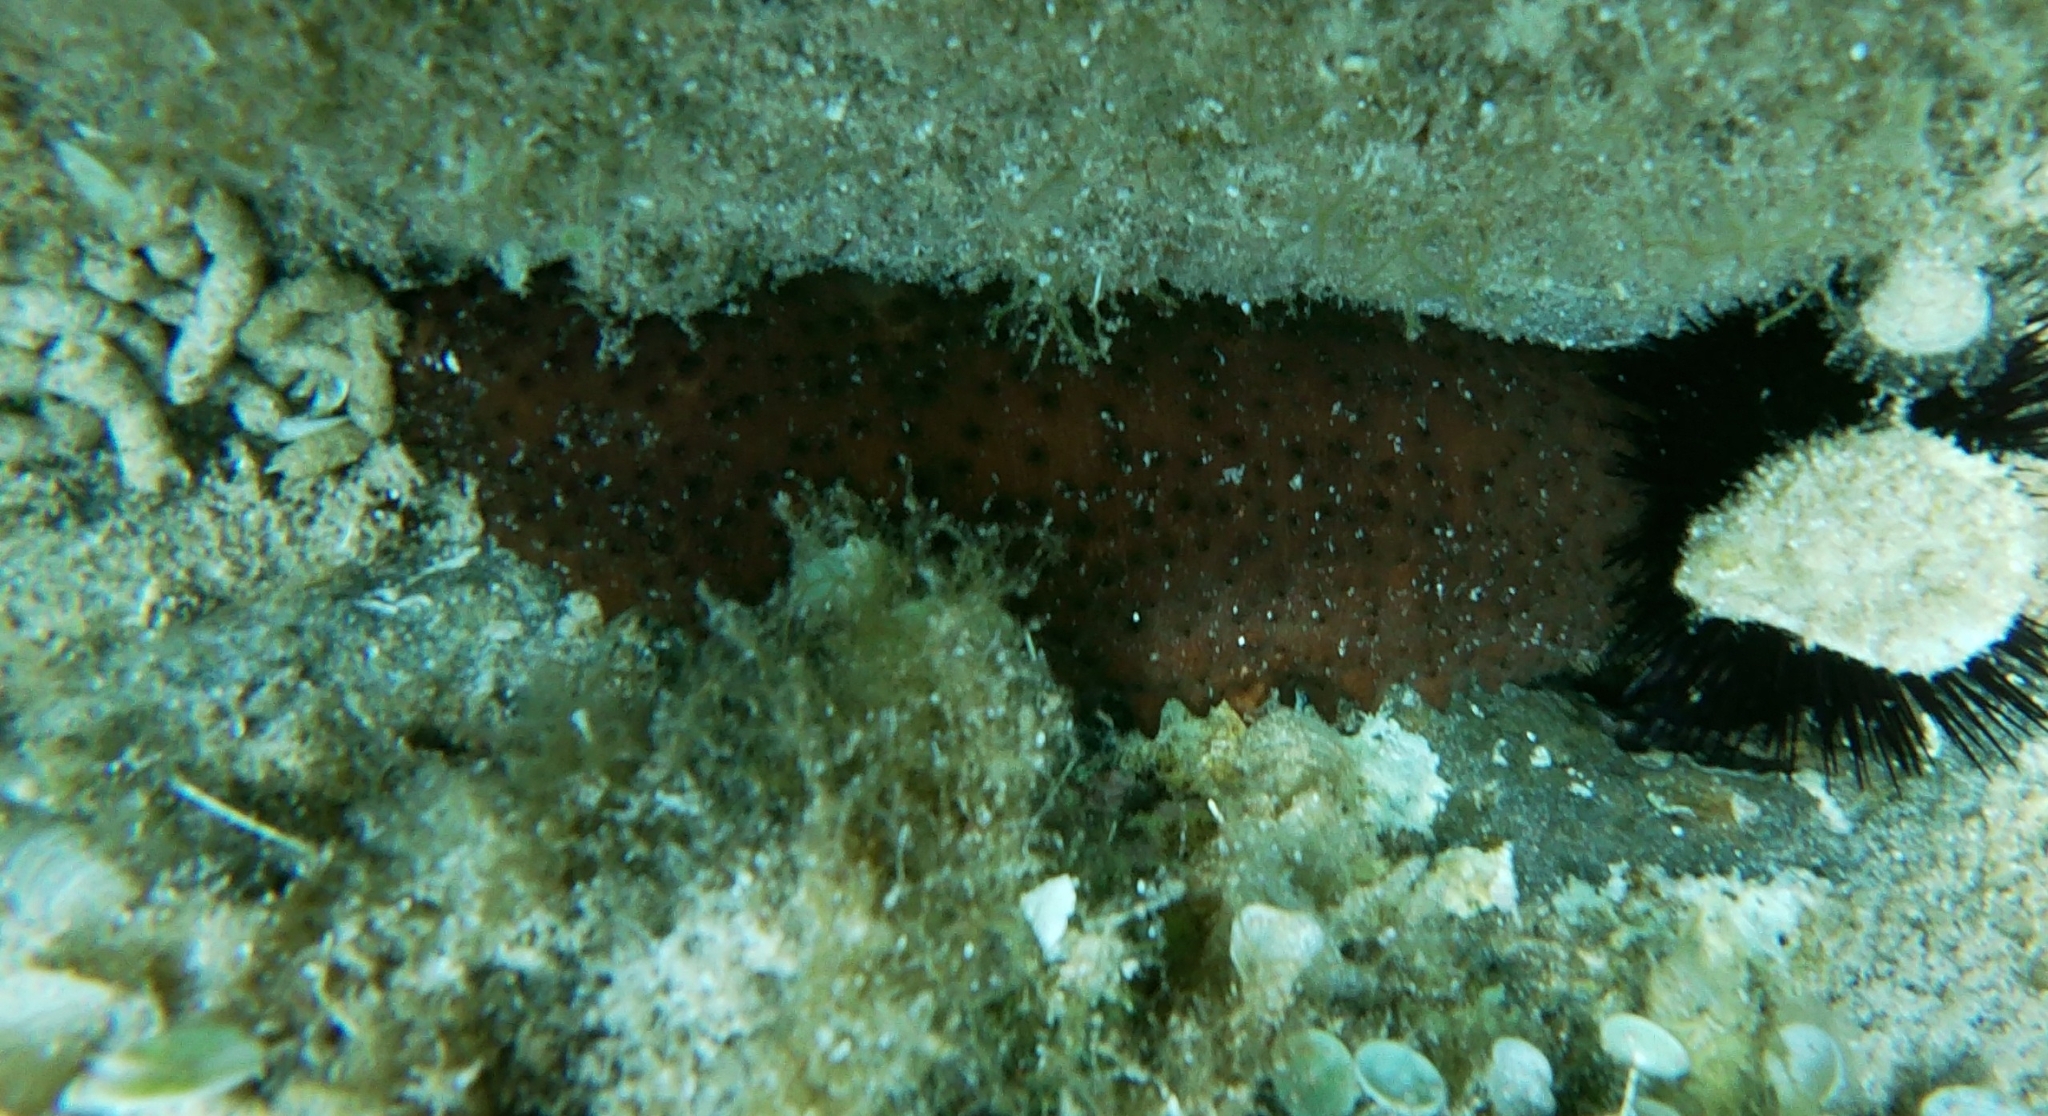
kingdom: Animalia
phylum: Echinodermata
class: Holothuroidea
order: Holothuriida
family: Holothuriidae
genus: Holothuria
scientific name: Holothuria sanctori
